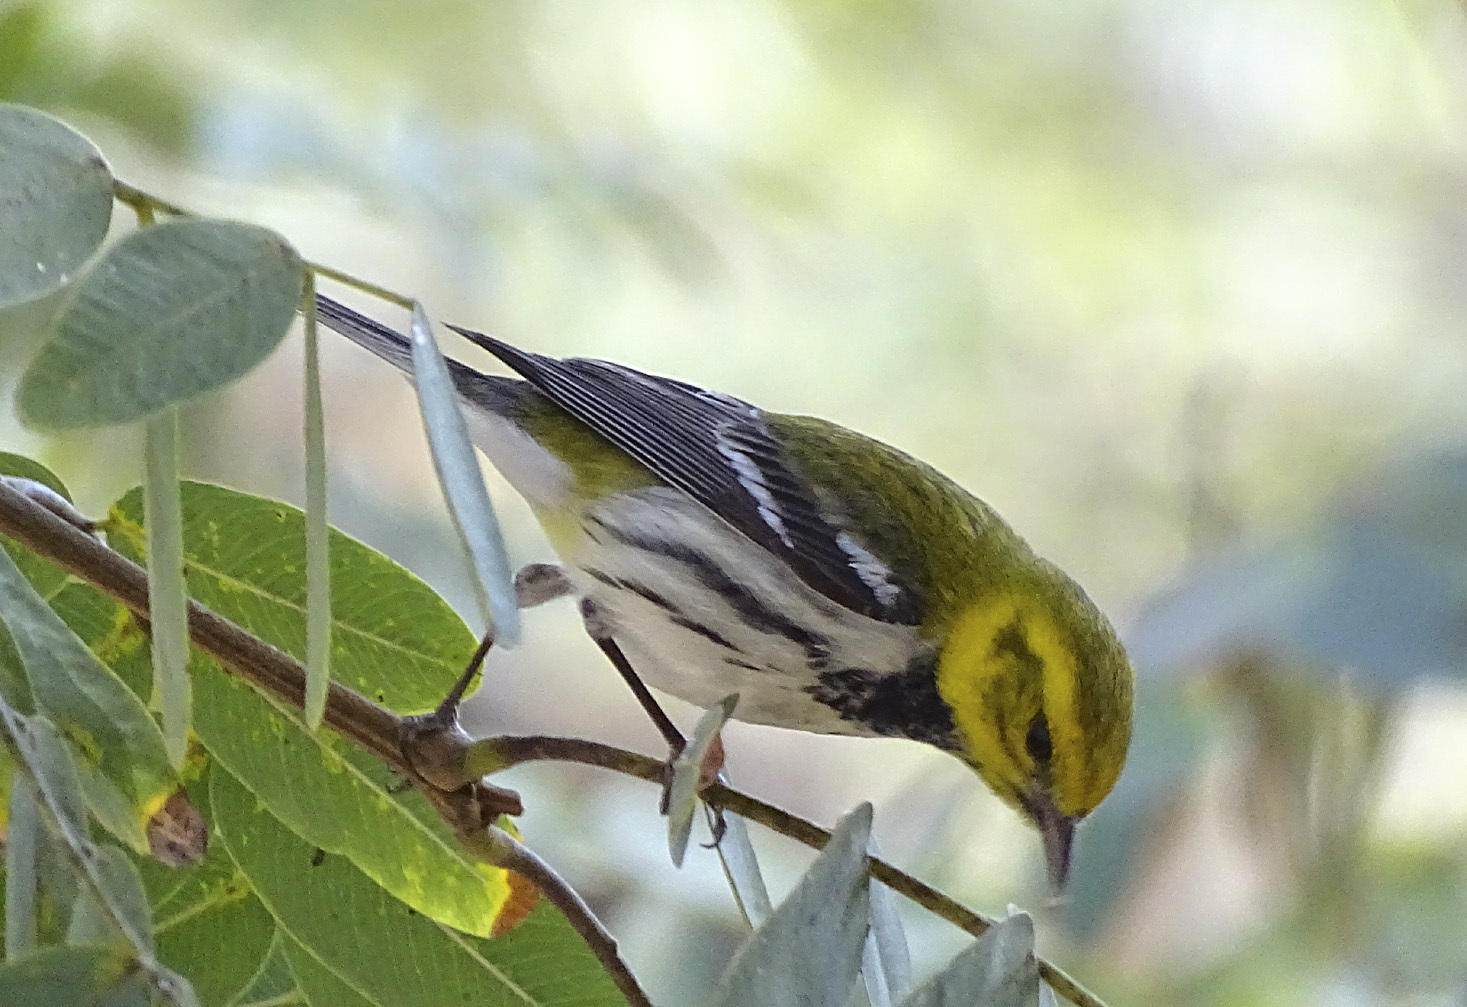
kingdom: Animalia
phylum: Chordata
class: Aves
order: Passeriformes
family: Parulidae
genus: Setophaga
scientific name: Setophaga virens
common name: Black-throated green warbler
